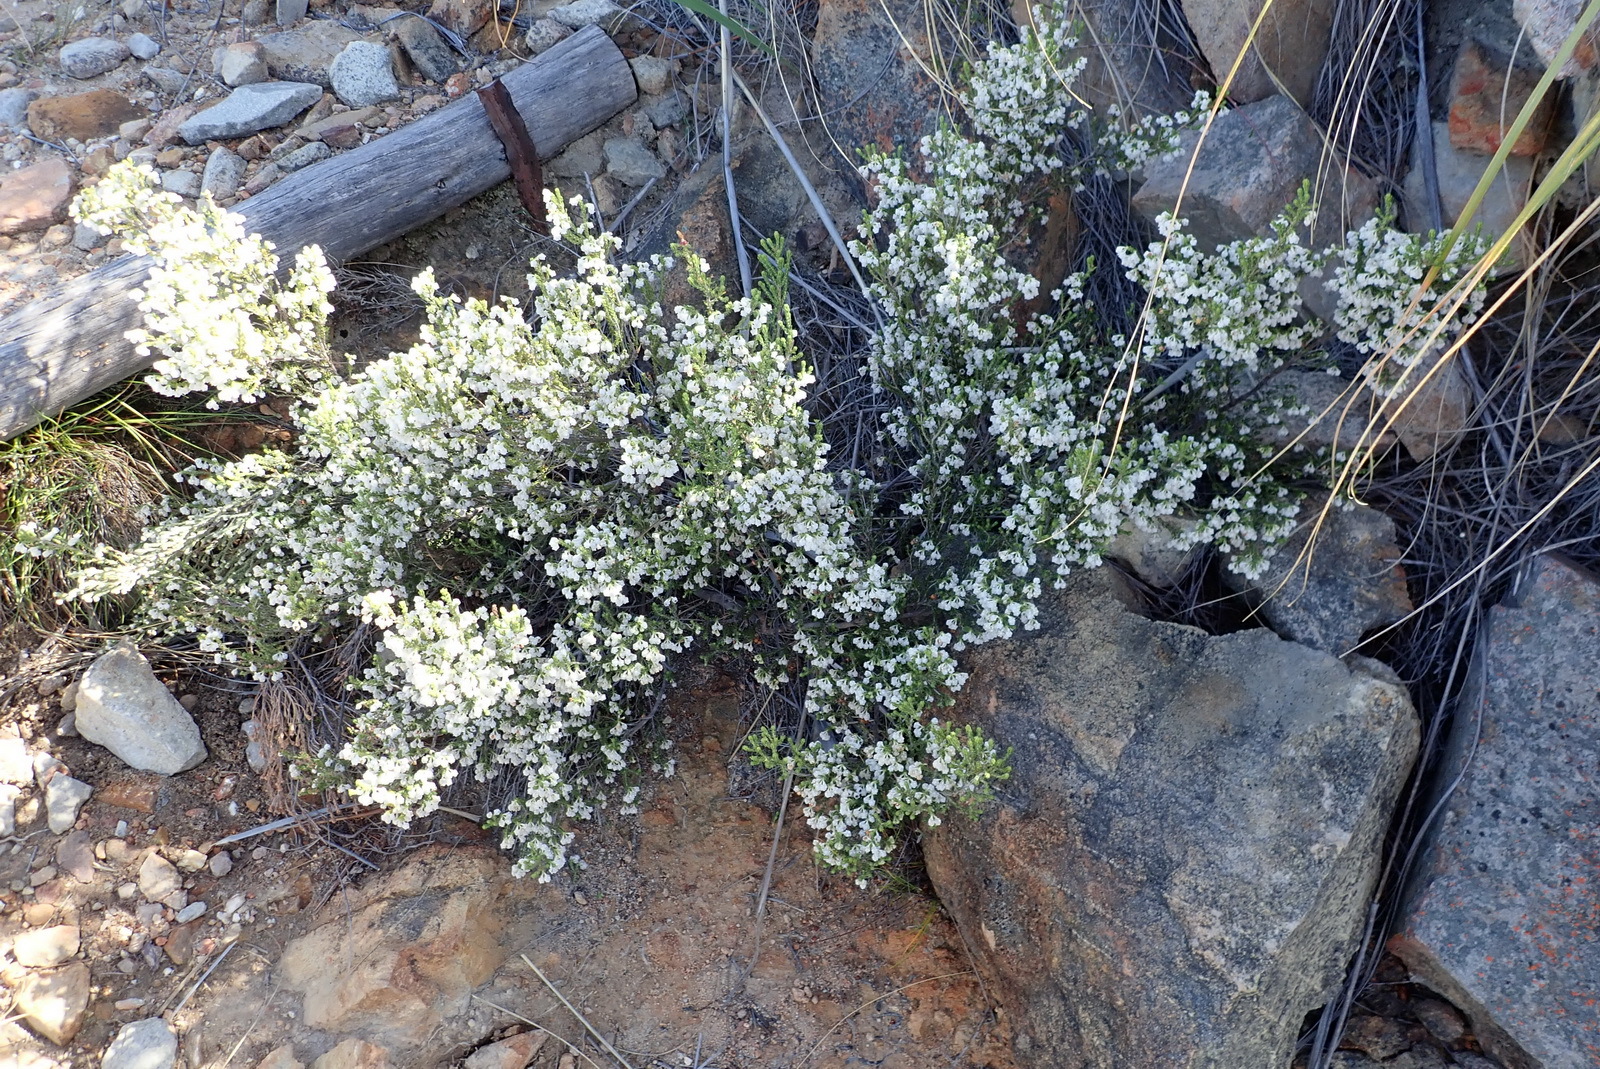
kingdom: Plantae
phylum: Tracheophyta
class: Magnoliopsida
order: Ericales
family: Ericaceae
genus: Erica
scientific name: Erica syngenesia
